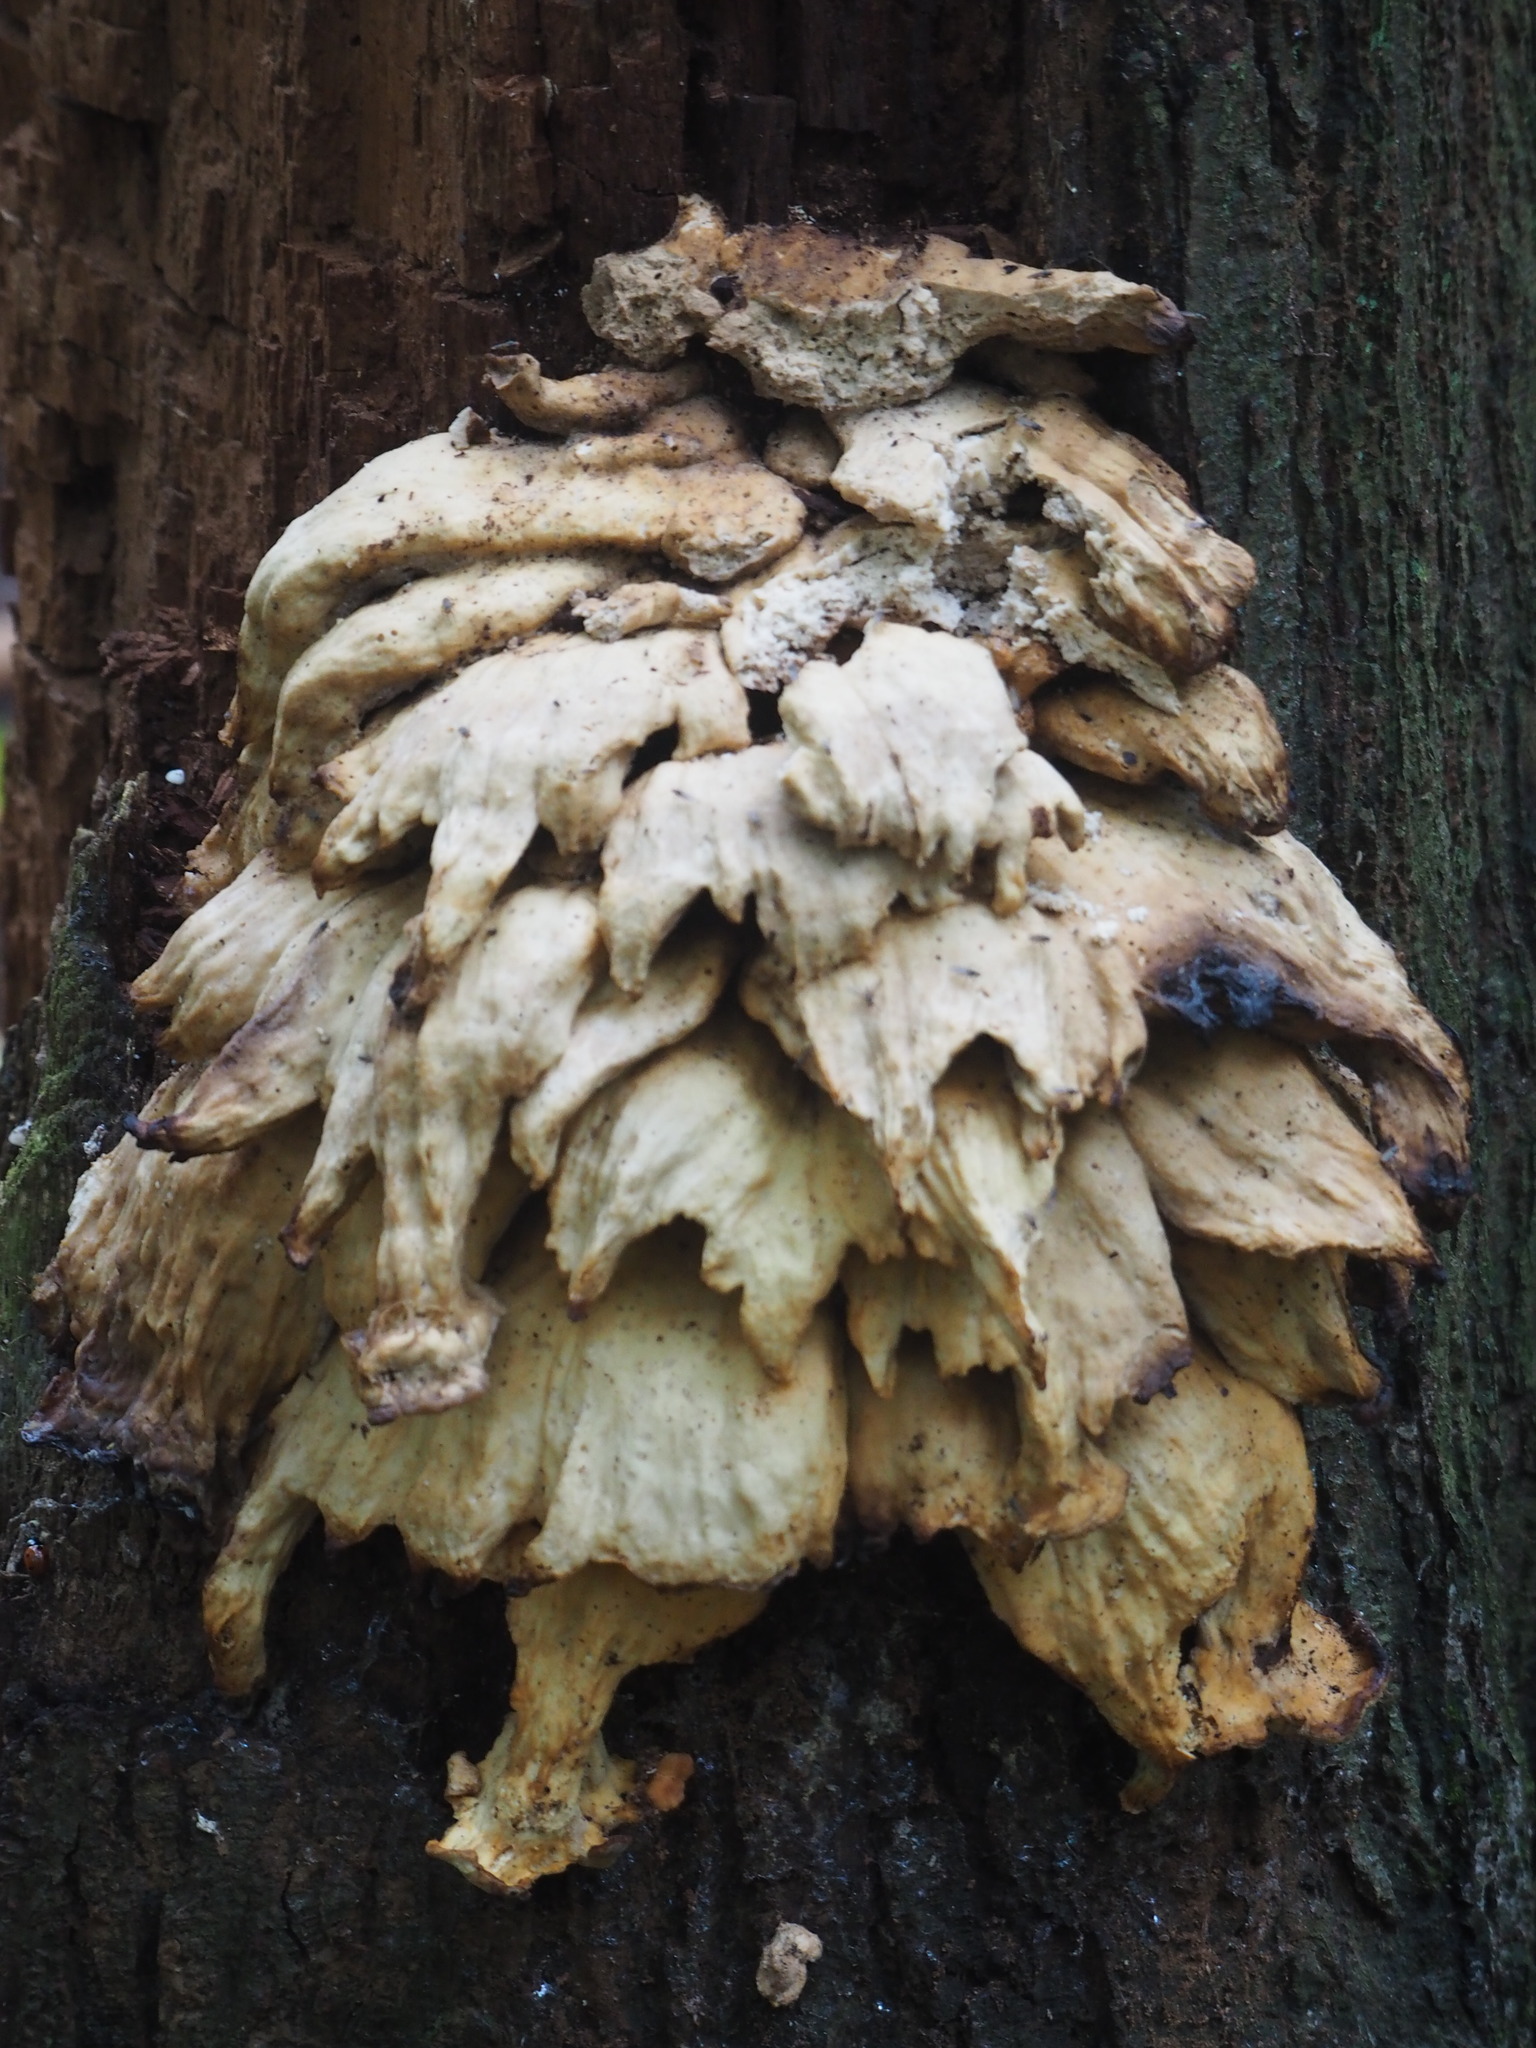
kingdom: Fungi
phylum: Basidiomycota
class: Agaricomycetes
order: Polyporales
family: Laetiporaceae
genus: Laetiporus
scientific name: Laetiporus sulphureus
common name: Chicken of the woods
